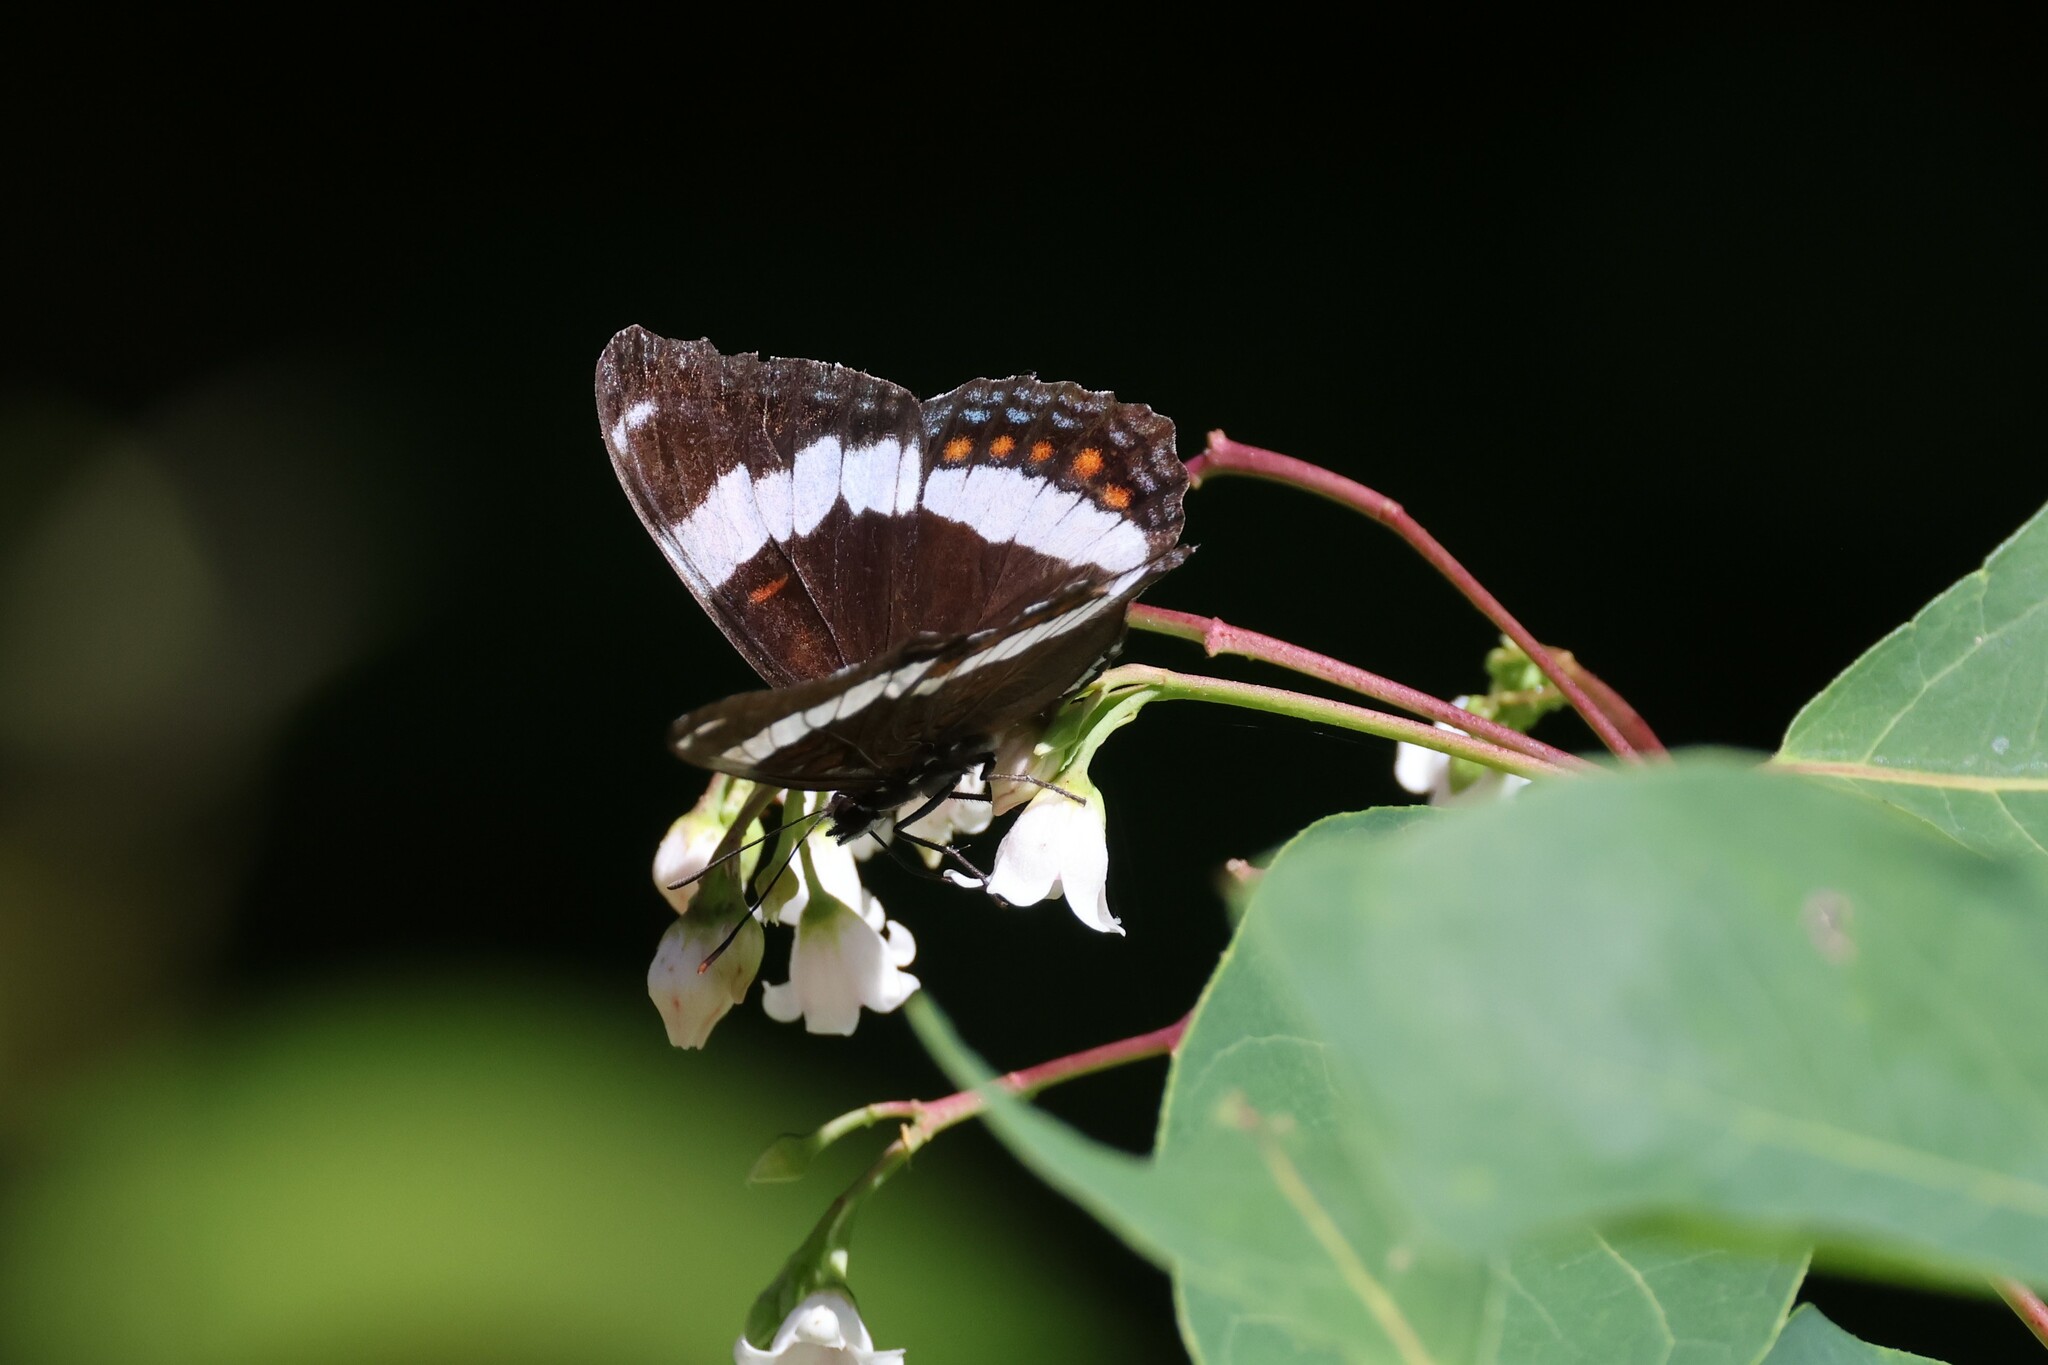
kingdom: Animalia
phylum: Arthropoda
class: Insecta
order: Lepidoptera
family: Nymphalidae
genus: Limenitis
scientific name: Limenitis arthemis
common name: Red-spotted admiral
